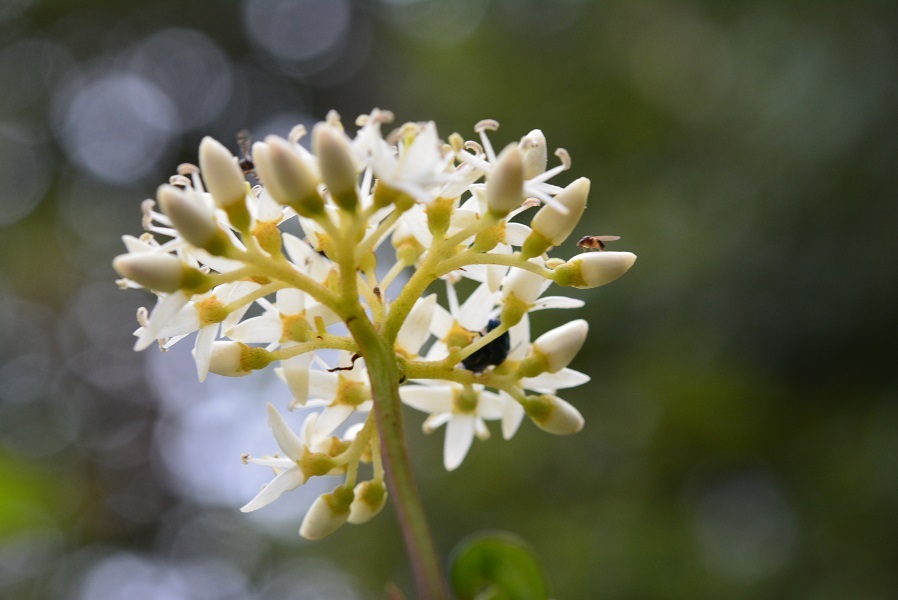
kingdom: Plantae
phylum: Tracheophyta
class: Magnoliopsida
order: Cornales
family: Cornaceae
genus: Cornus
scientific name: Cornus excelsa
